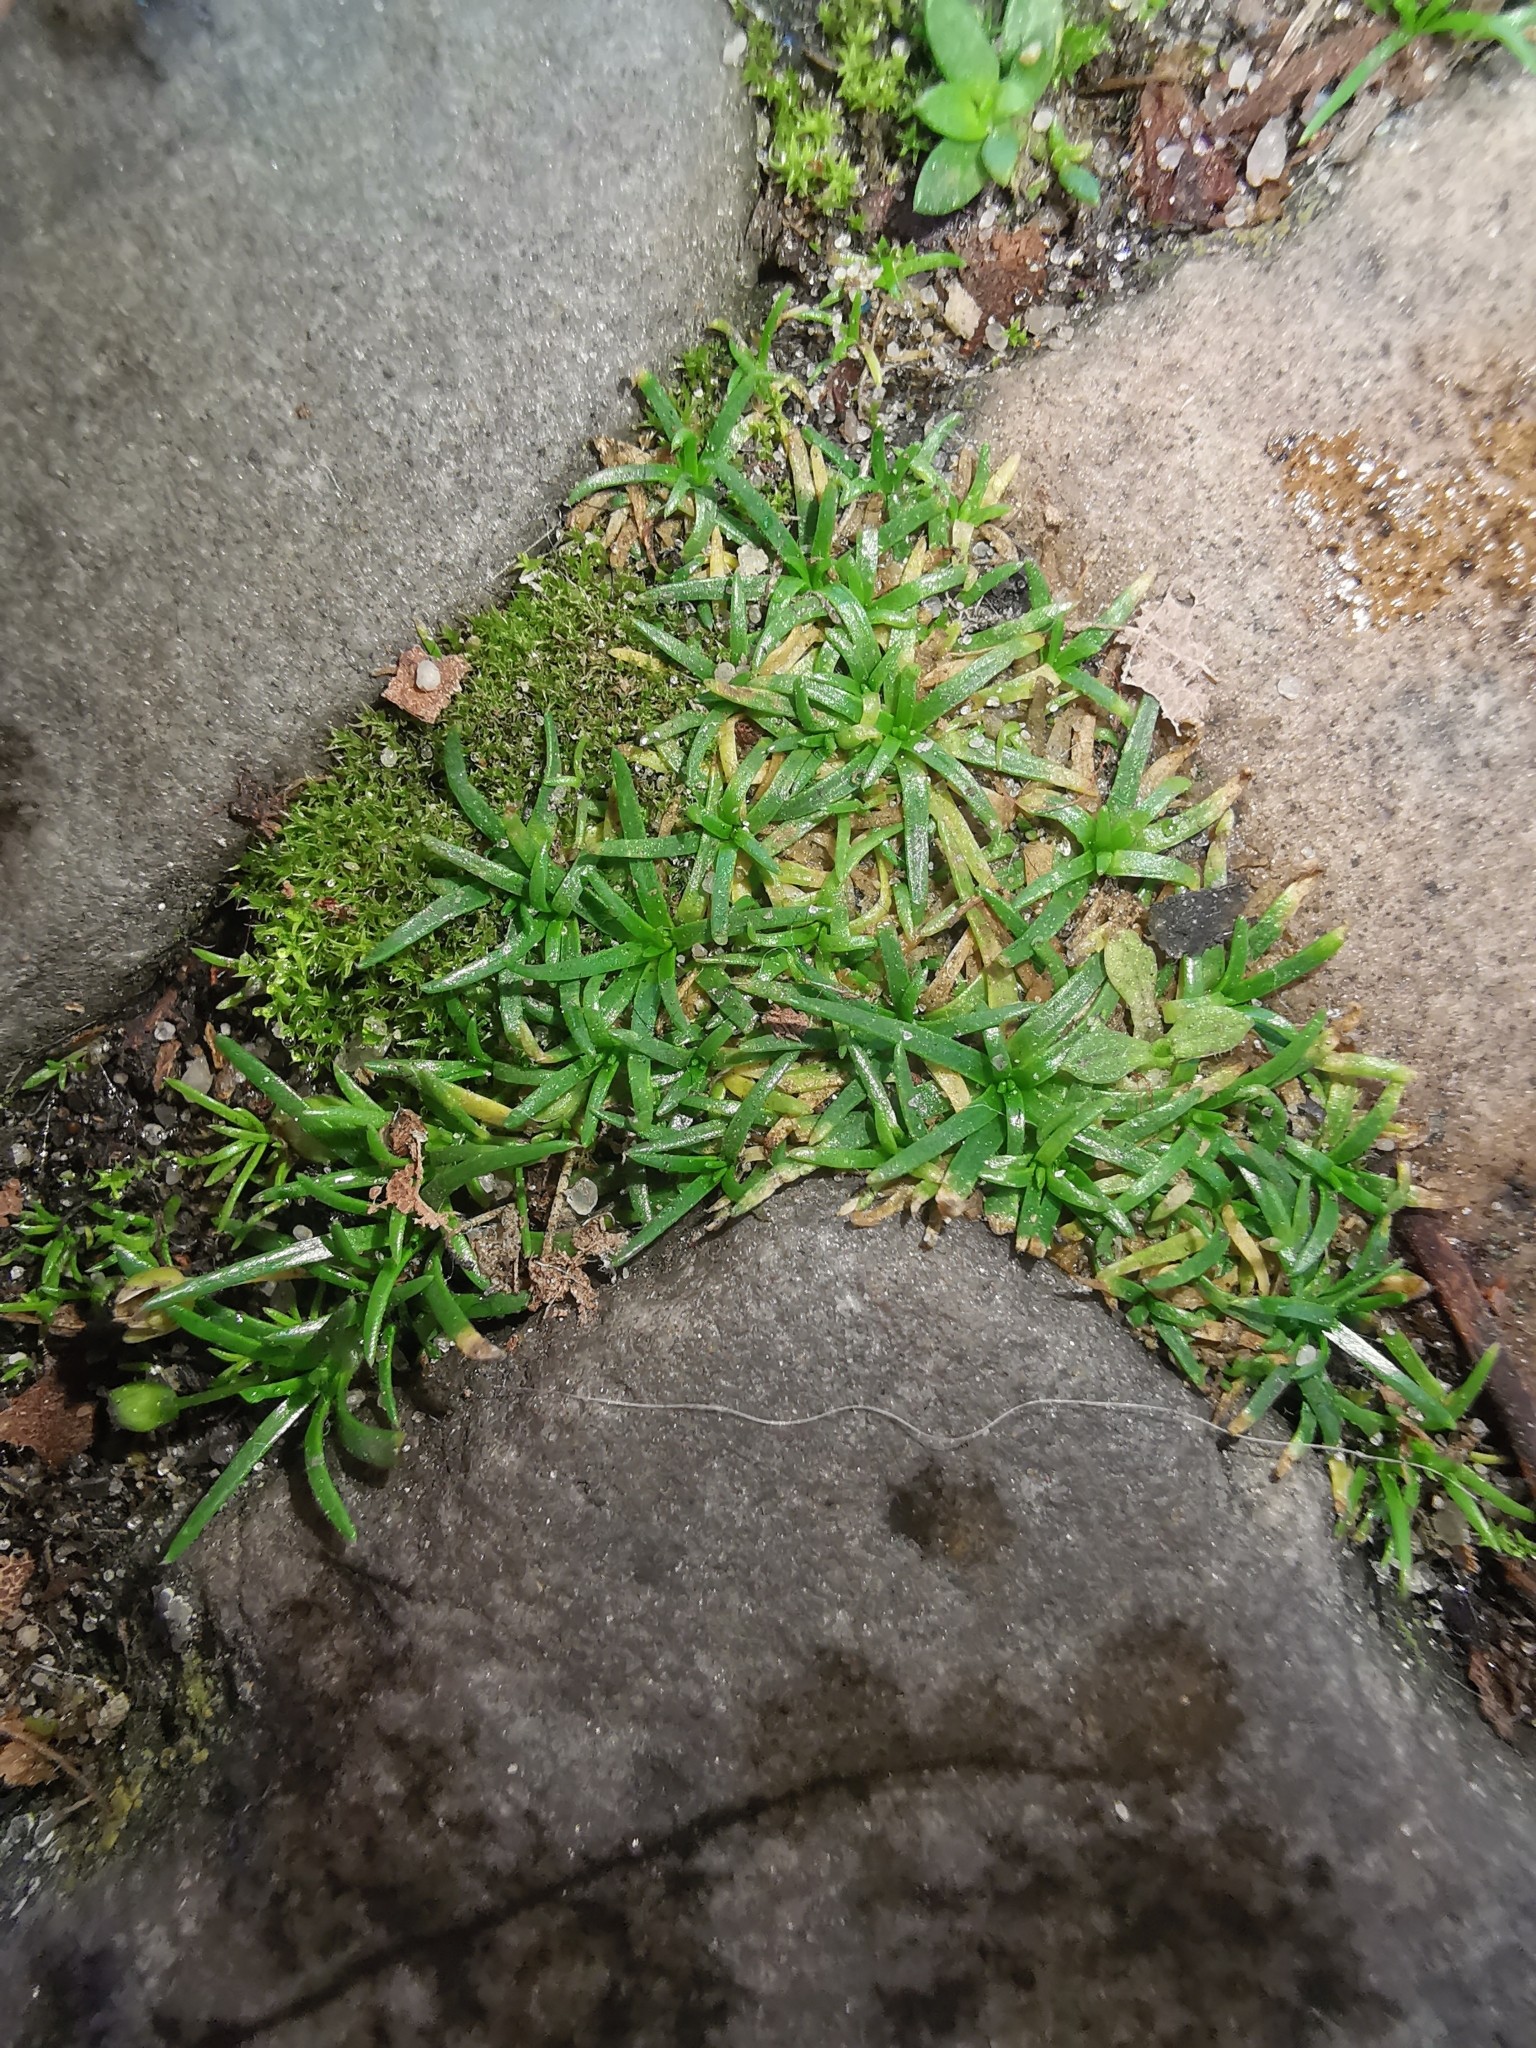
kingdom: Plantae
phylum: Tracheophyta
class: Magnoliopsida
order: Caryophyllales
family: Caryophyllaceae
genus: Sagina
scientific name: Sagina procumbens
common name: Procumbent pearlwort
